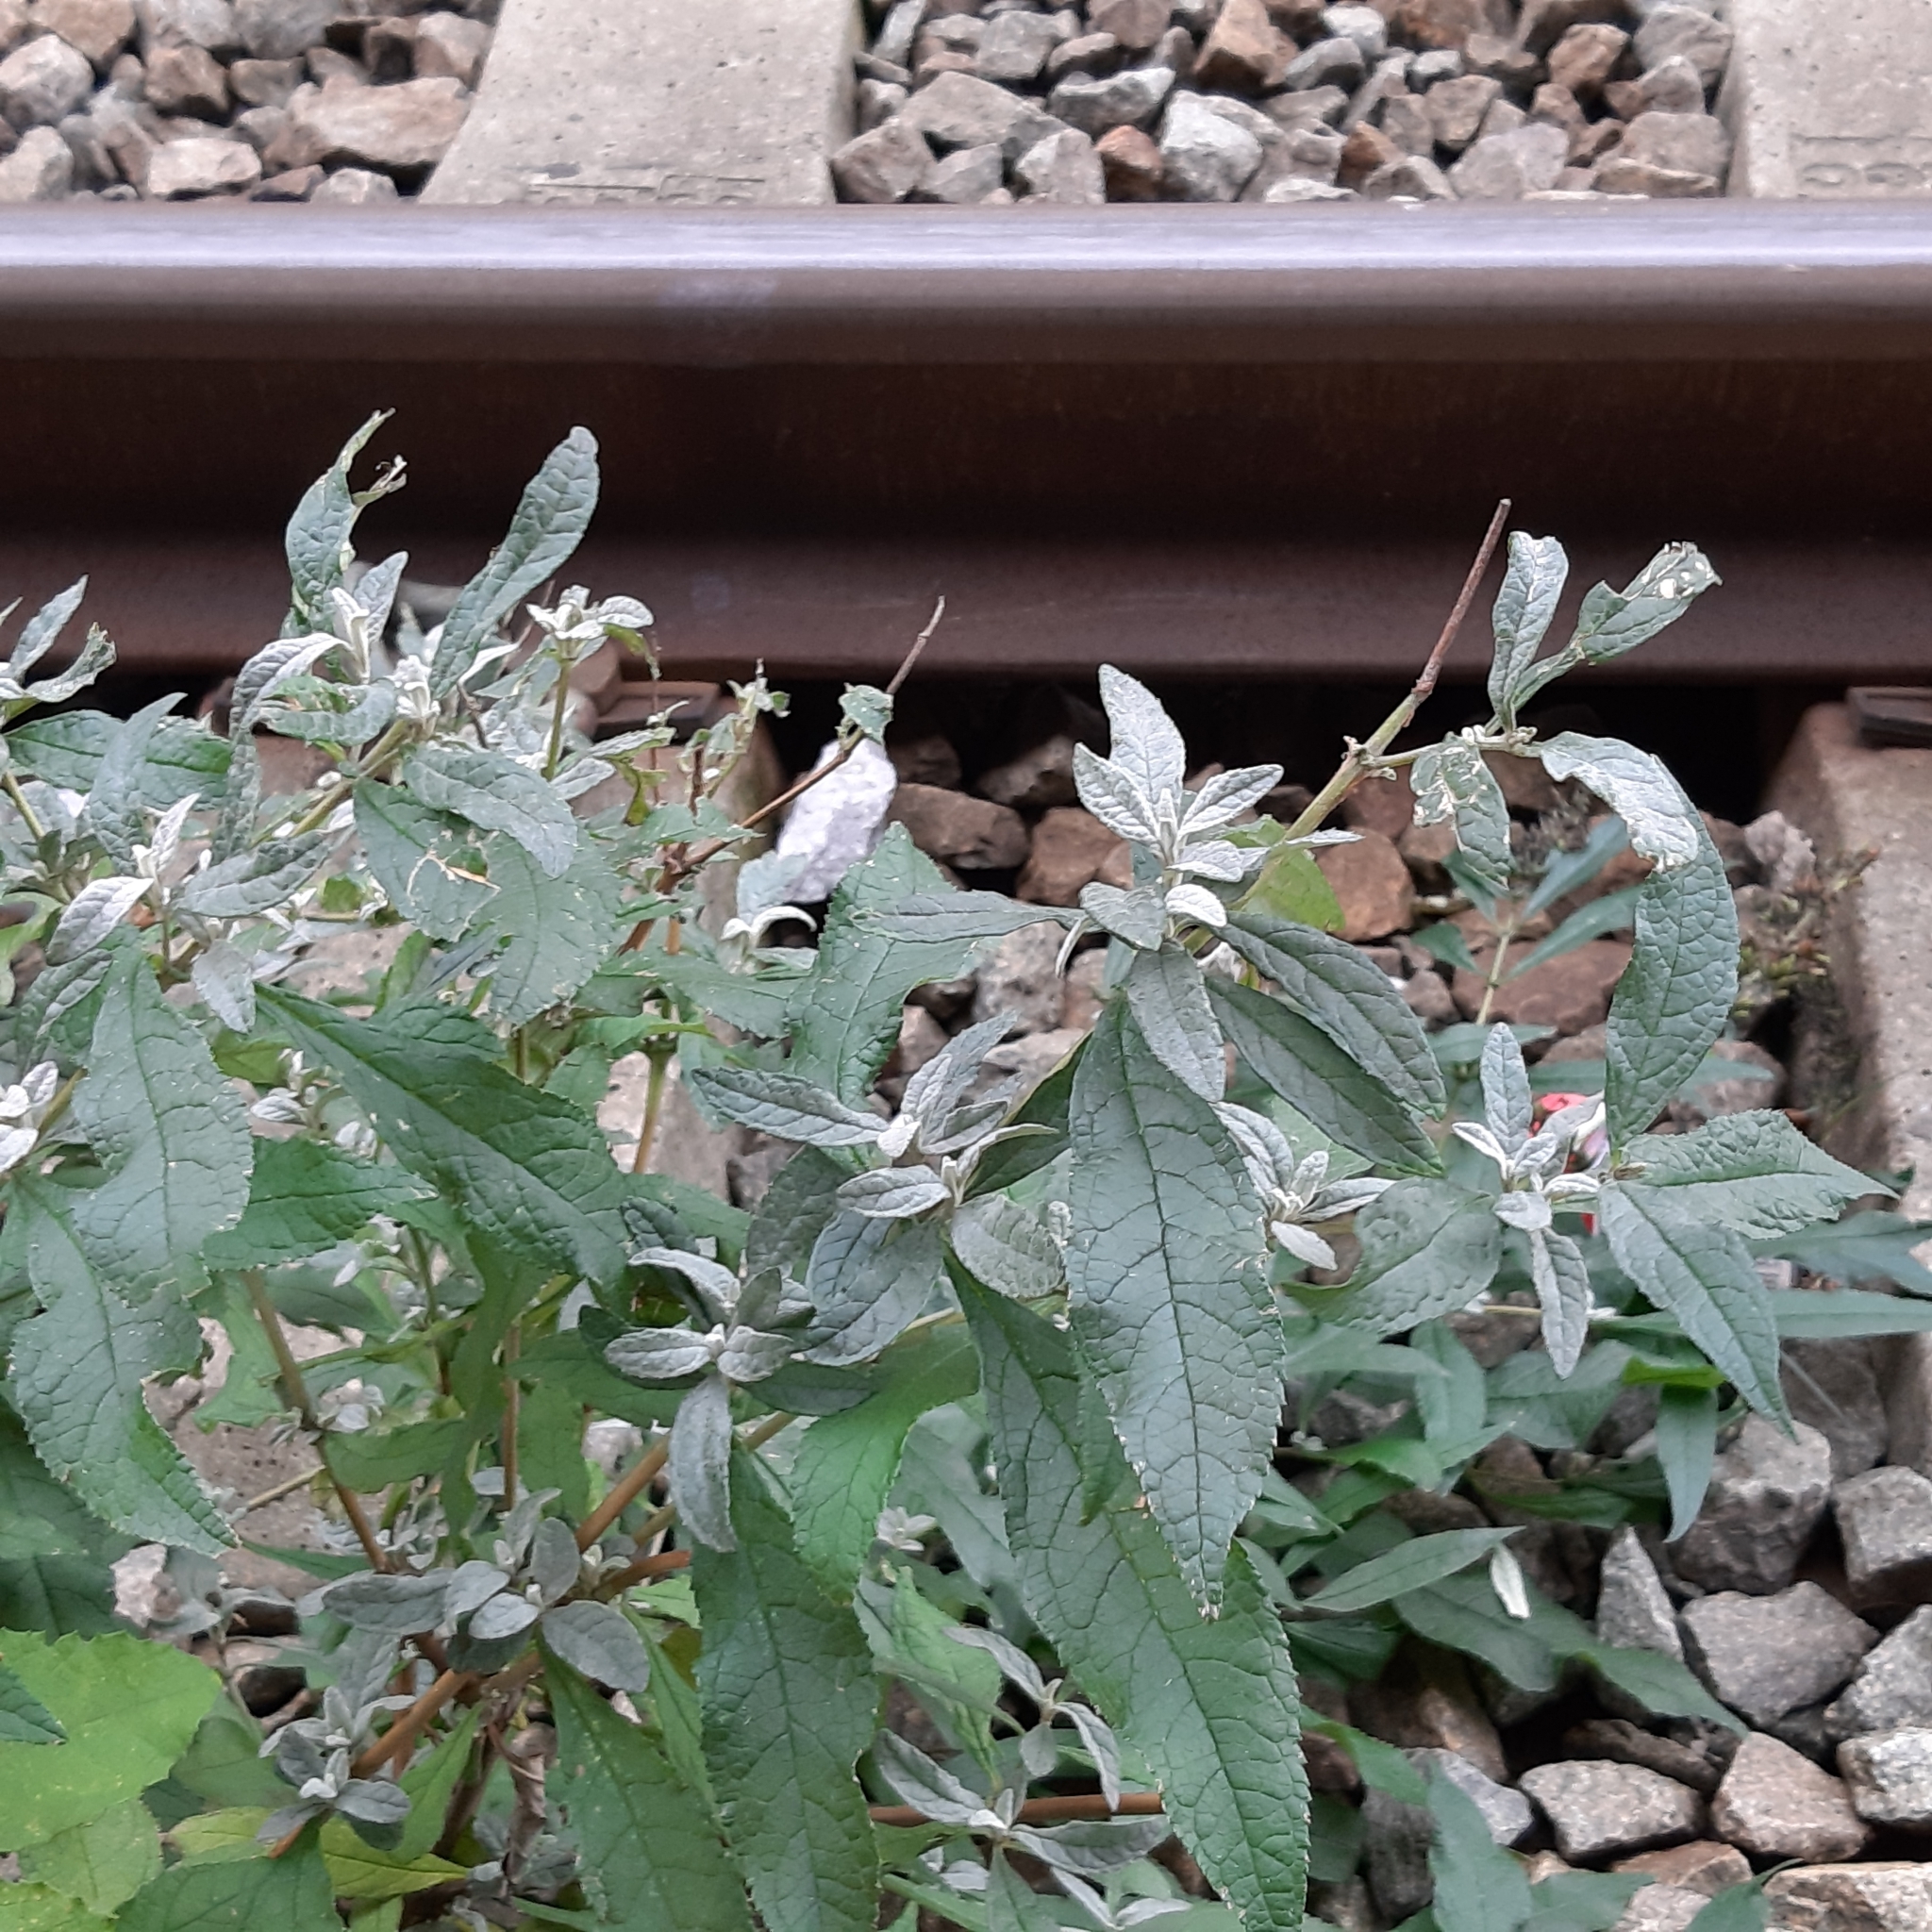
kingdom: Plantae
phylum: Tracheophyta
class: Magnoliopsida
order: Lamiales
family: Scrophulariaceae
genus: Buddleja
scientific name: Buddleja davidii
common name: Butterfly-bush
